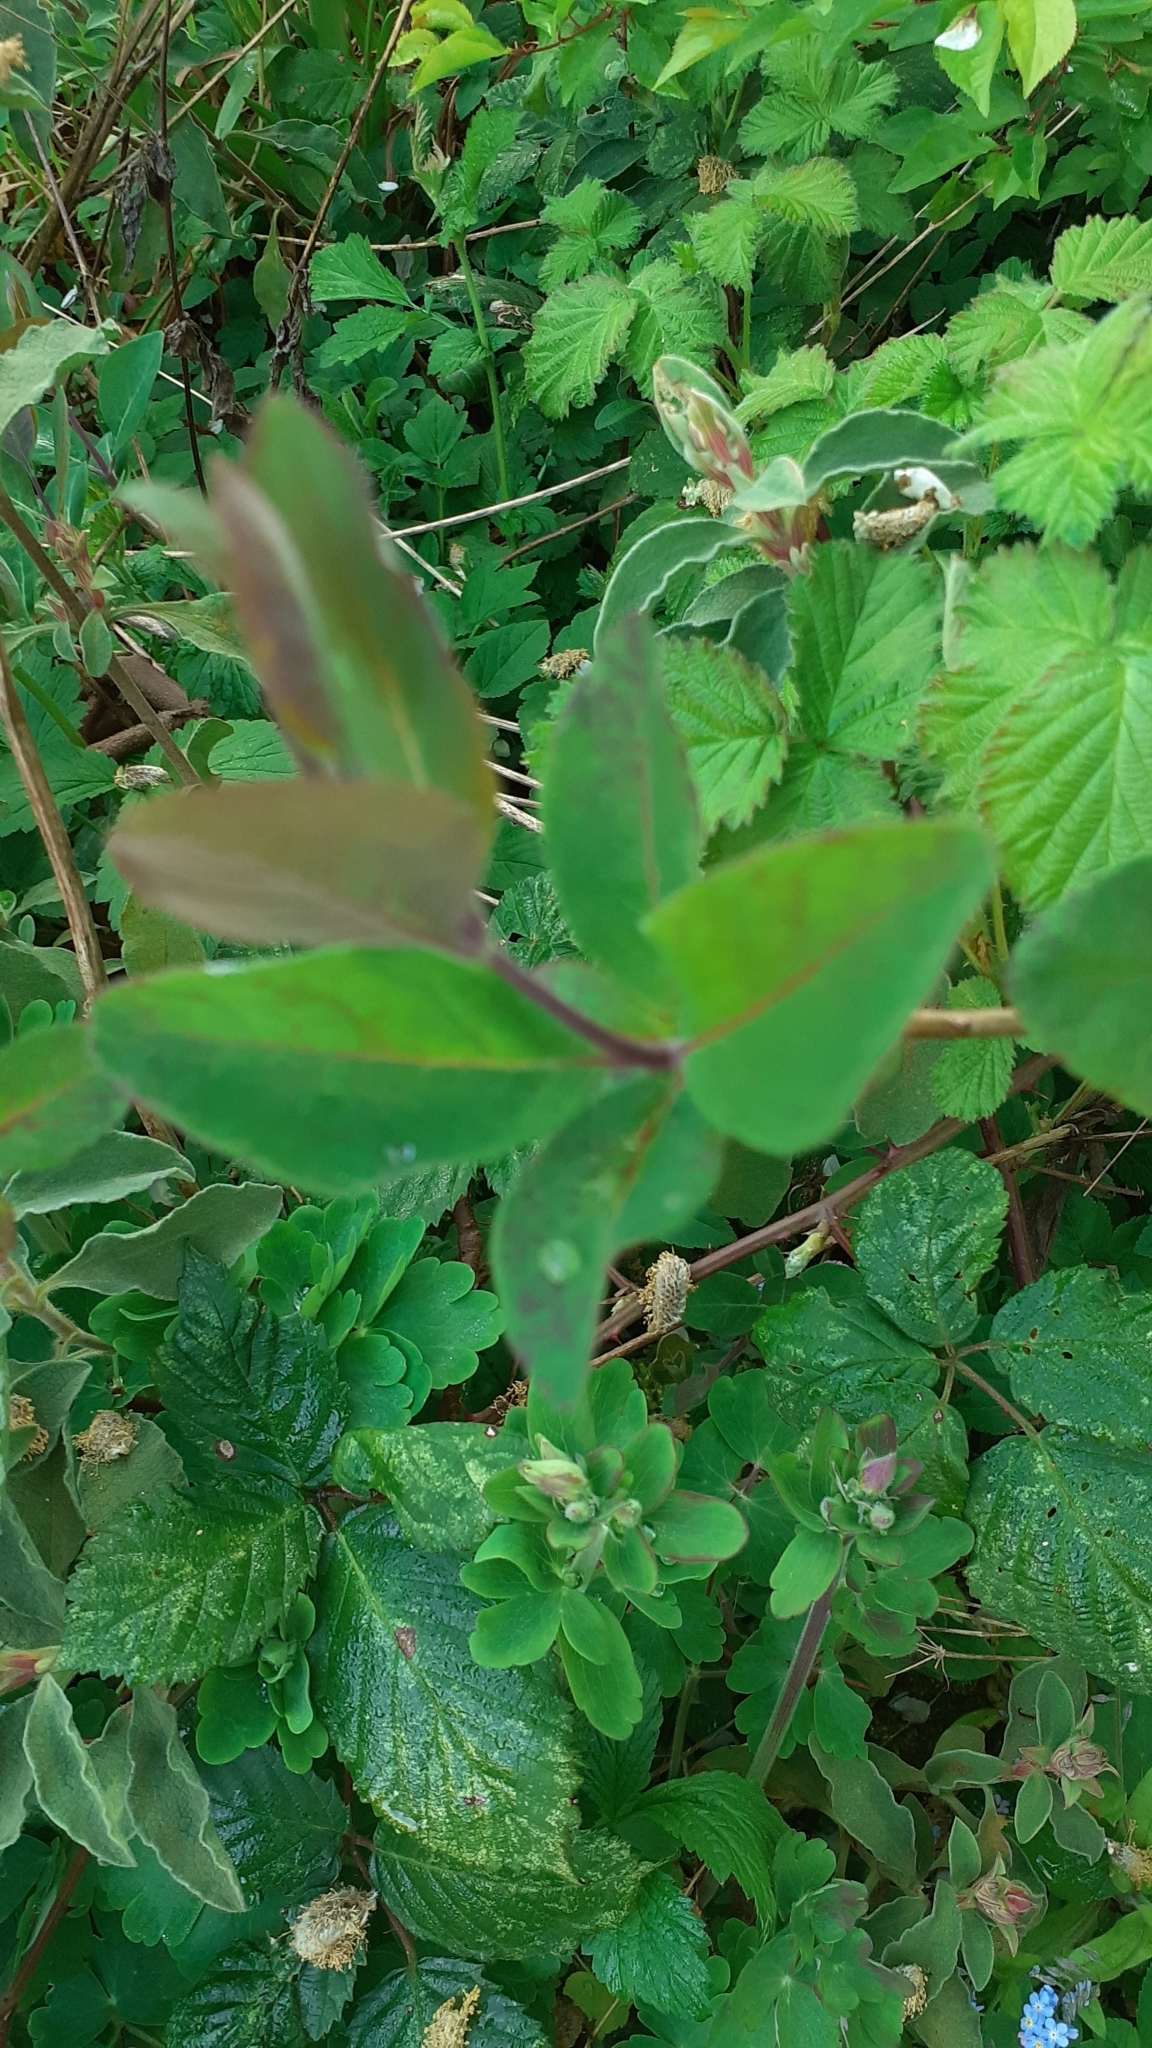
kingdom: Plantae
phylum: Tracheophyta
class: Magnoliopsida
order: Dipsacales
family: Caprifoliaceae
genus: Lonicera
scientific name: Lonicera periclymenum
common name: European honeysuckle
